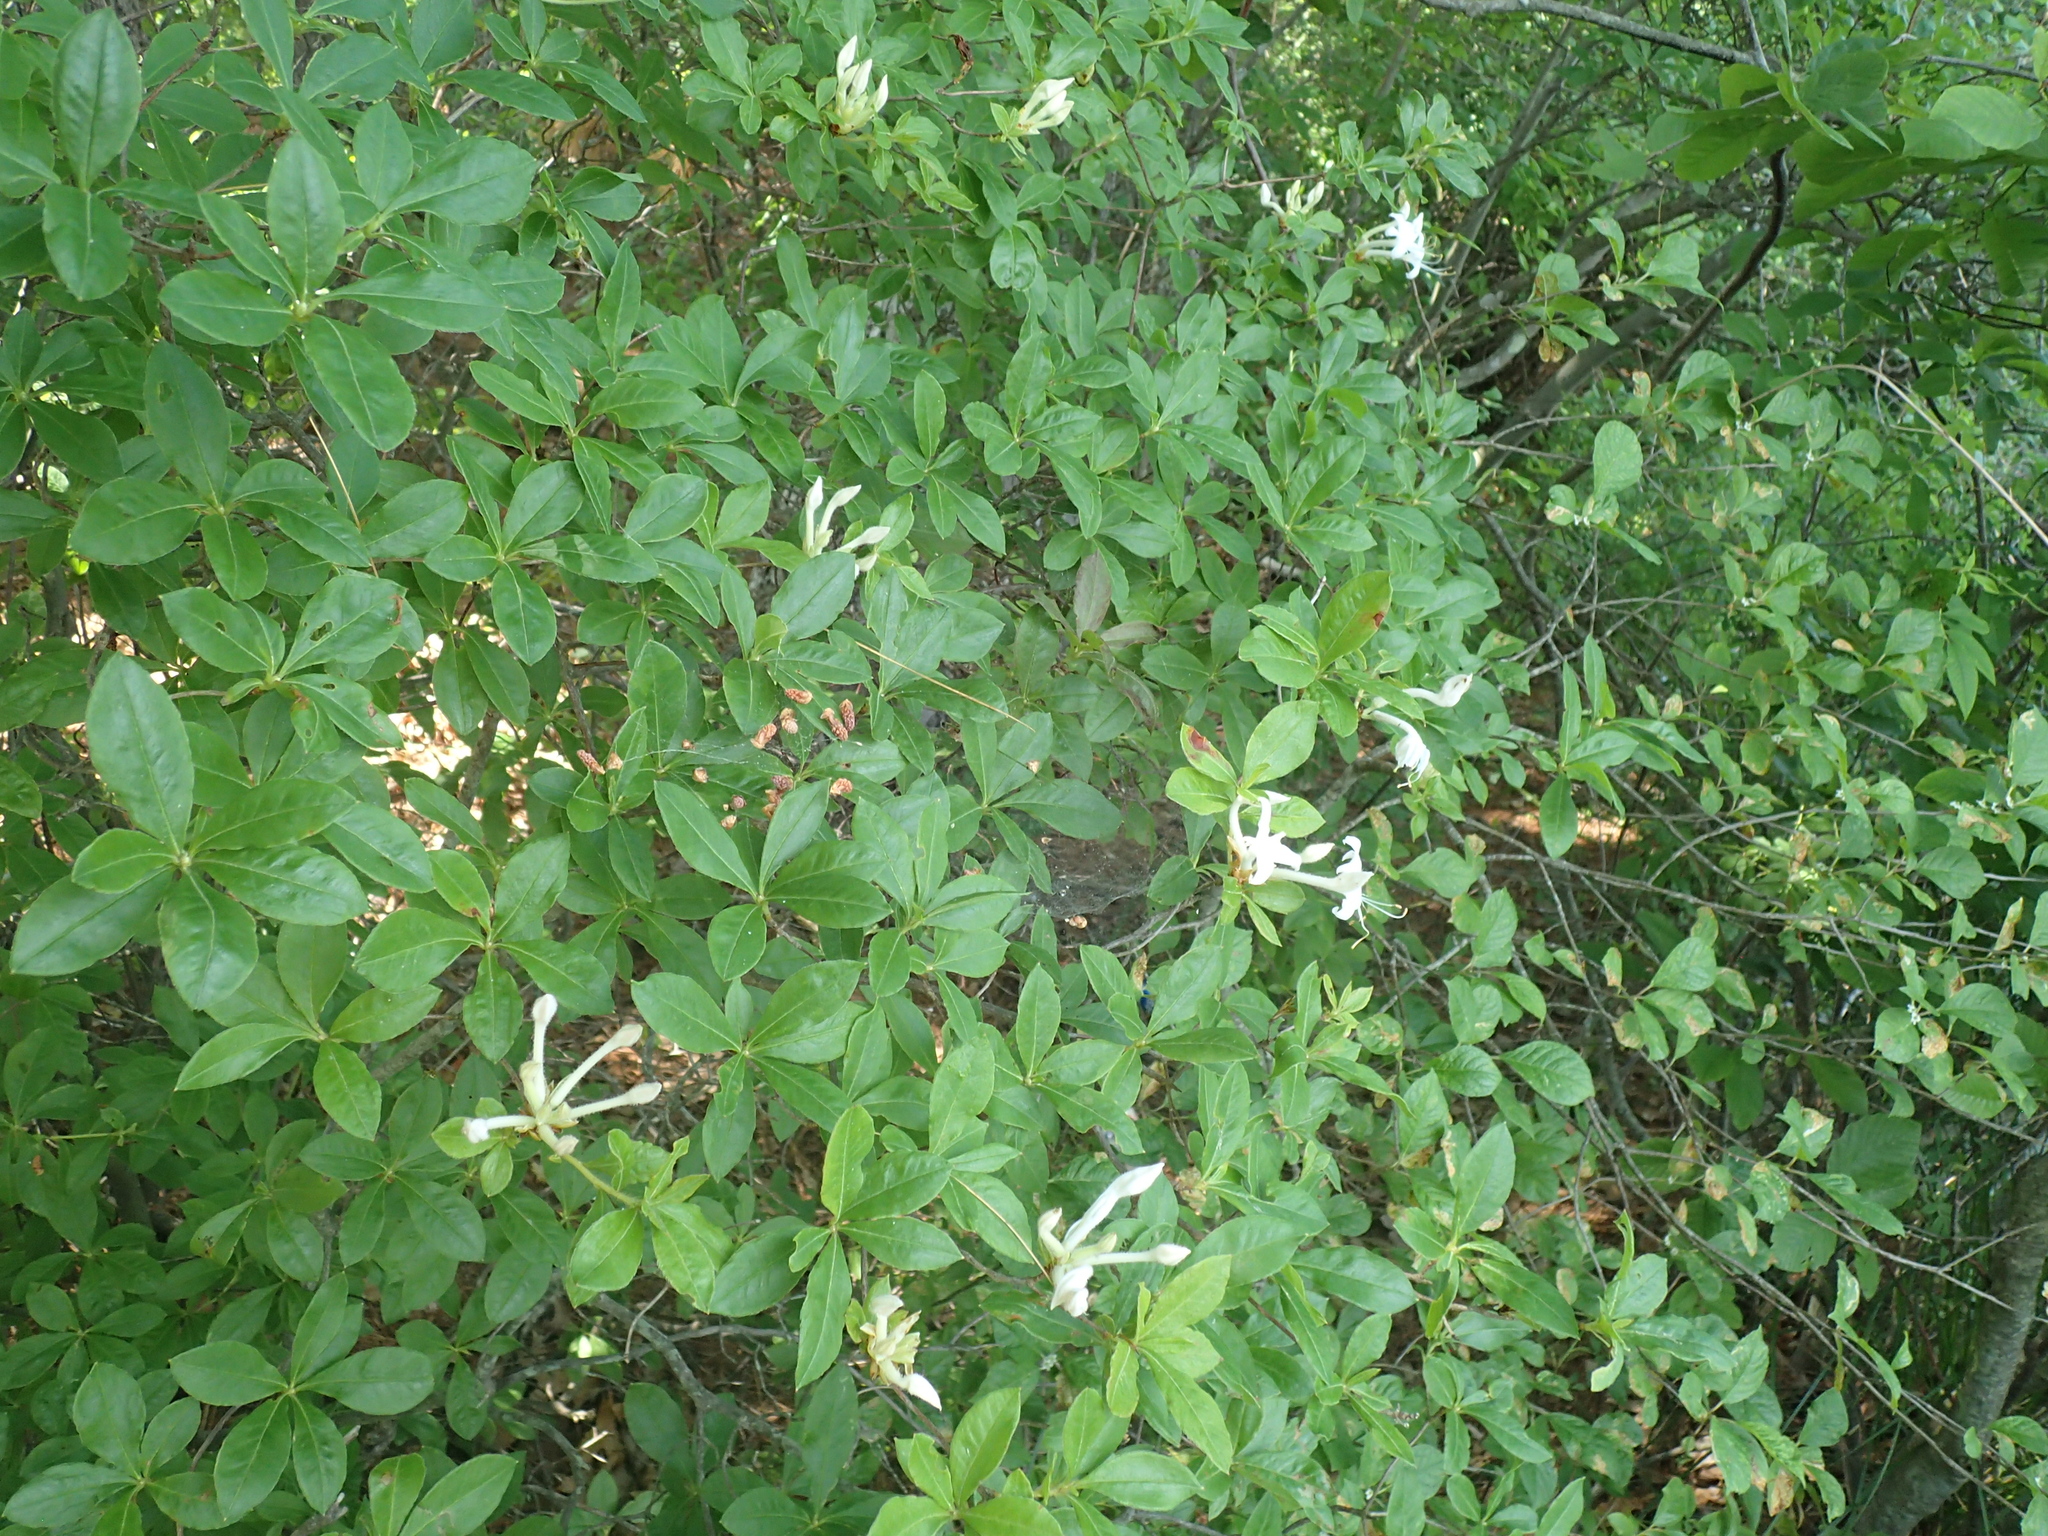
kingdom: Plantae
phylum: Tracheophyta
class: Magnoliopsida
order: Ericales
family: Ericaceae
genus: Rhododendron
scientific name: Rhododendron viscosum
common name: Clammy azalea
